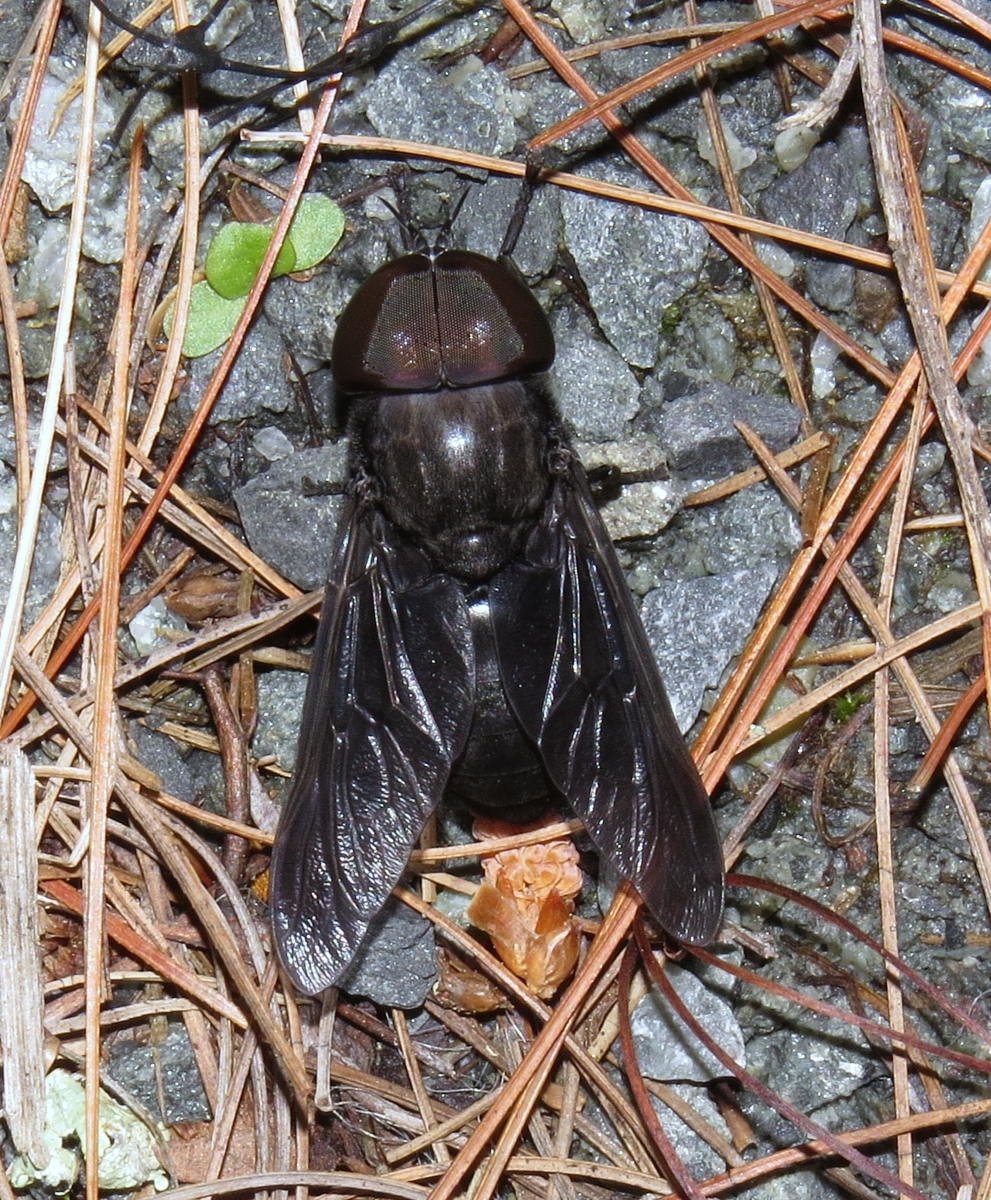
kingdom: Animalia
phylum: Arthropoda
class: Insecta
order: Diptera
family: Tabanidae
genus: Tabanus
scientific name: Tabanus atratus
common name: Black horse fly
